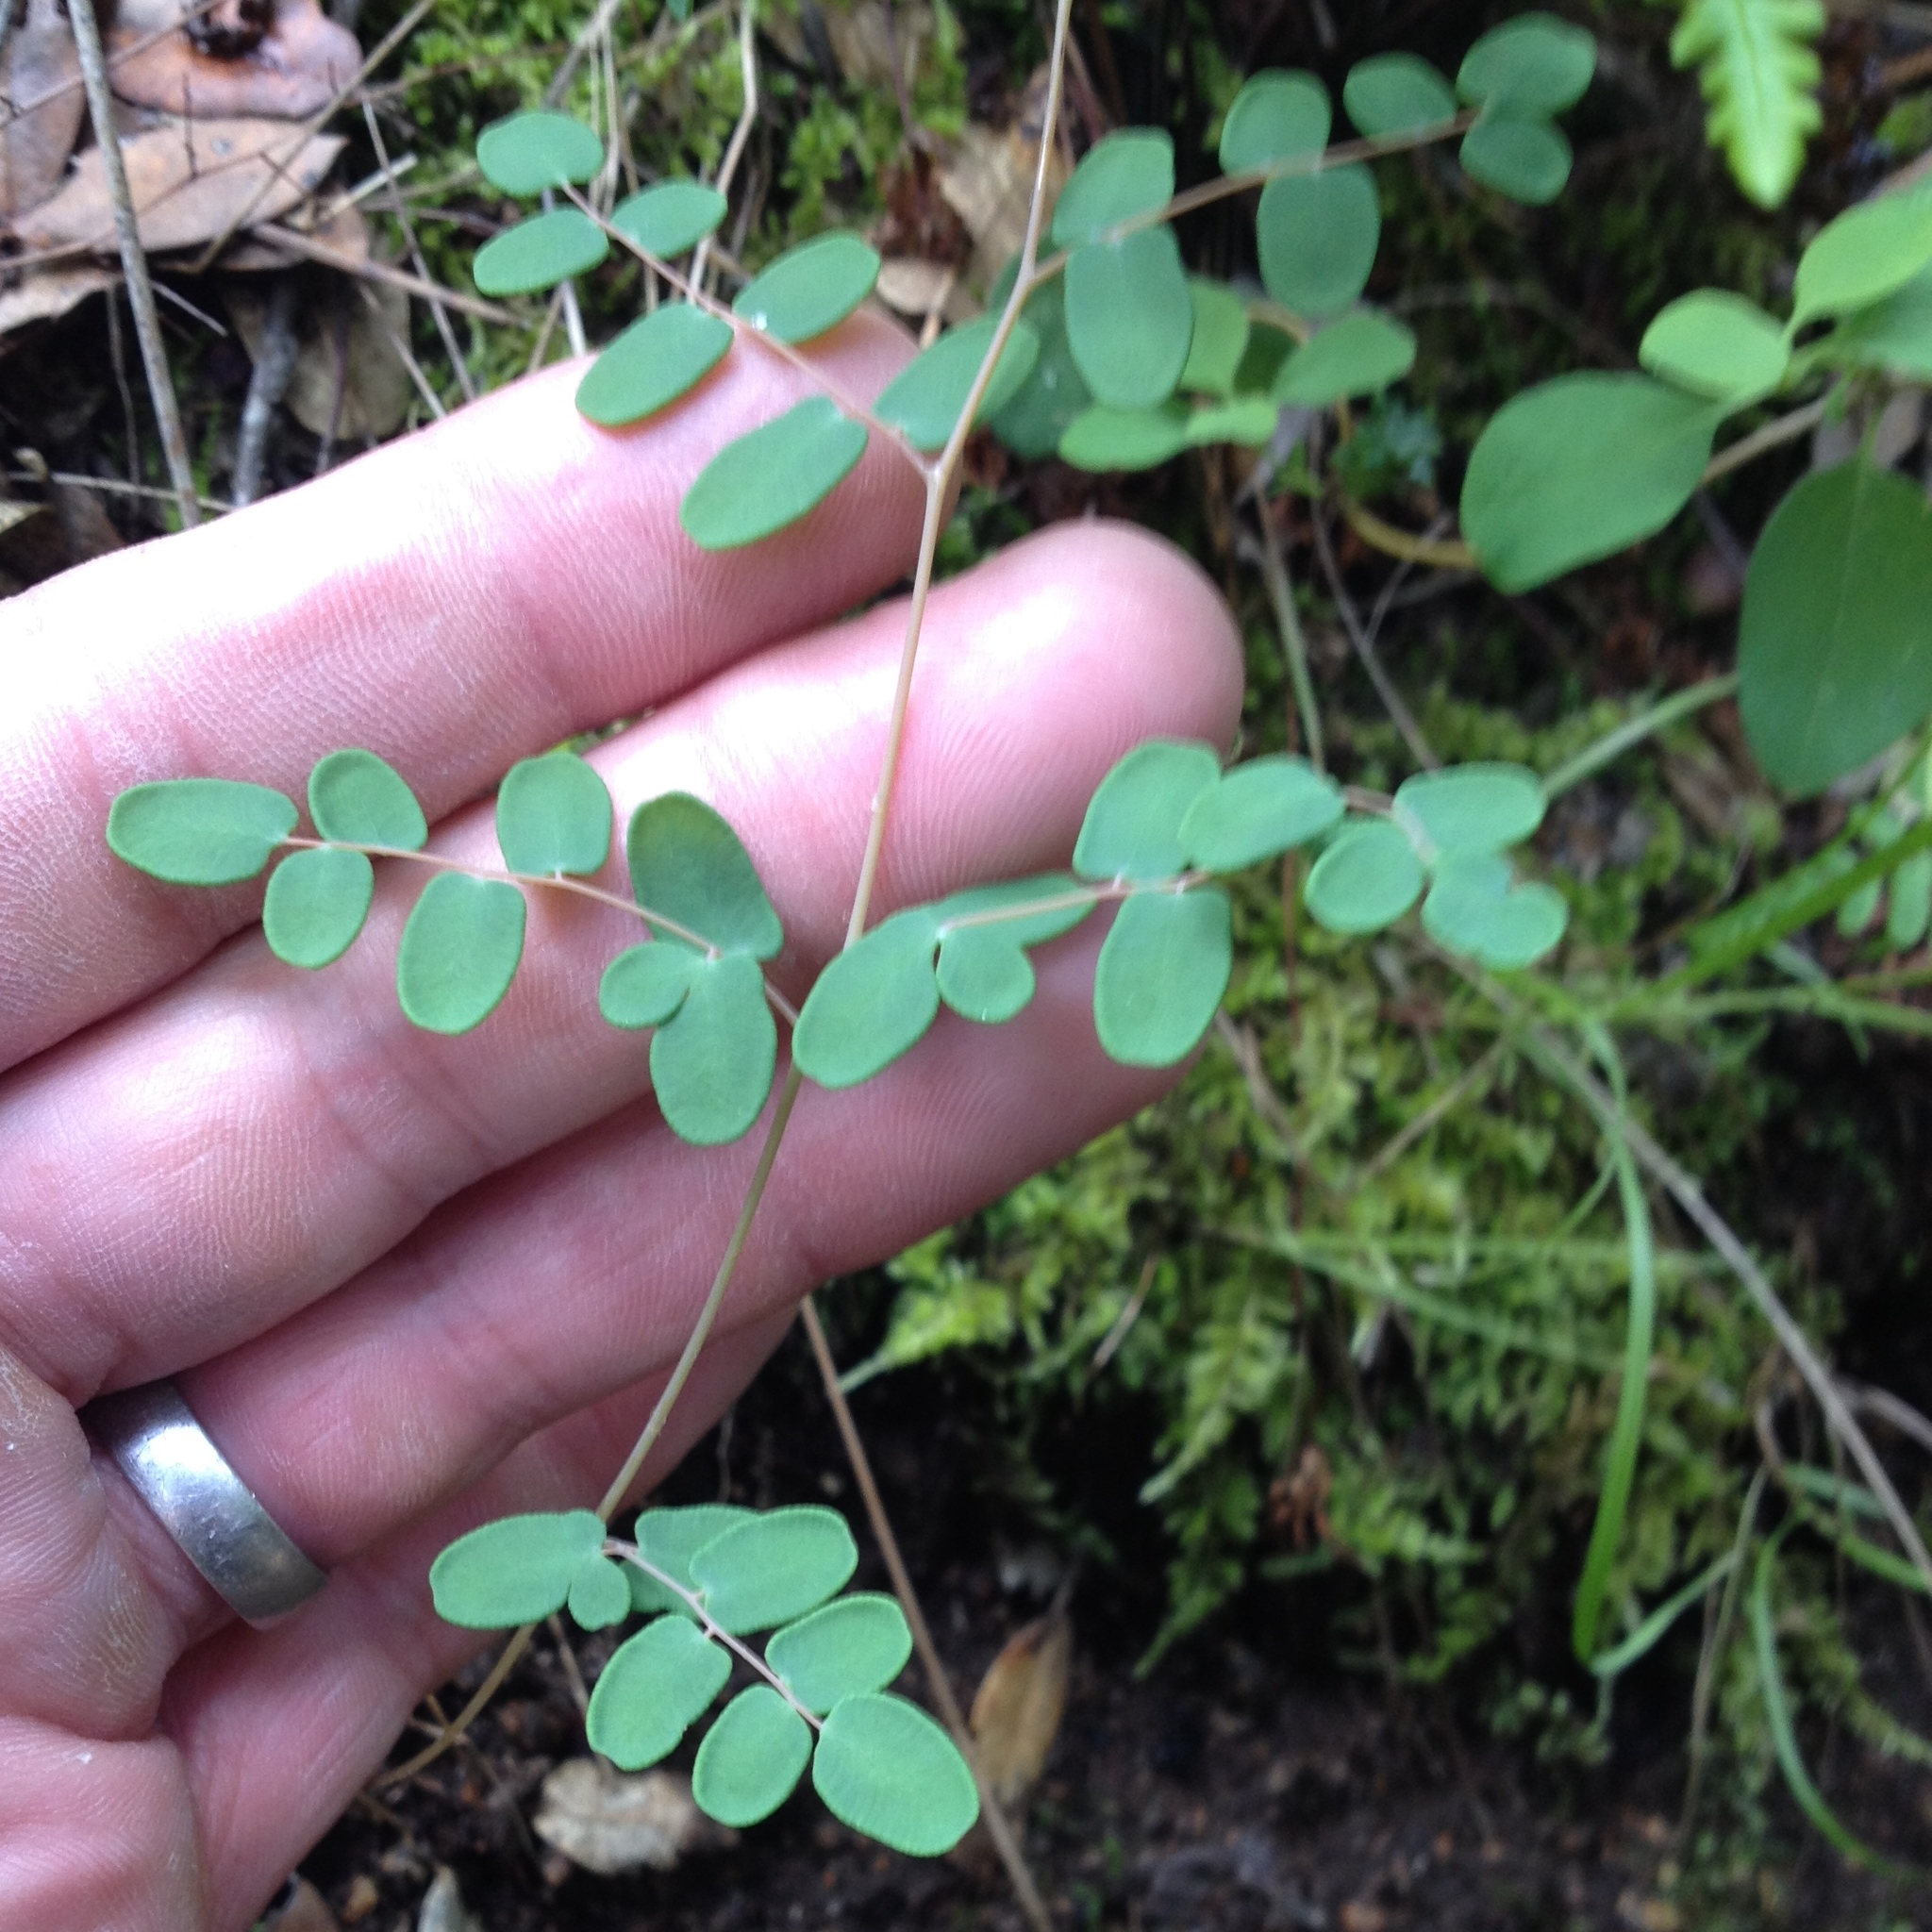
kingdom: Plantae
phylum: Tracheophyta
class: Polypodiopsida
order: Polypodiales
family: Pteridaceae
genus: Pellaea
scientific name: Pellaea andromedifolia
